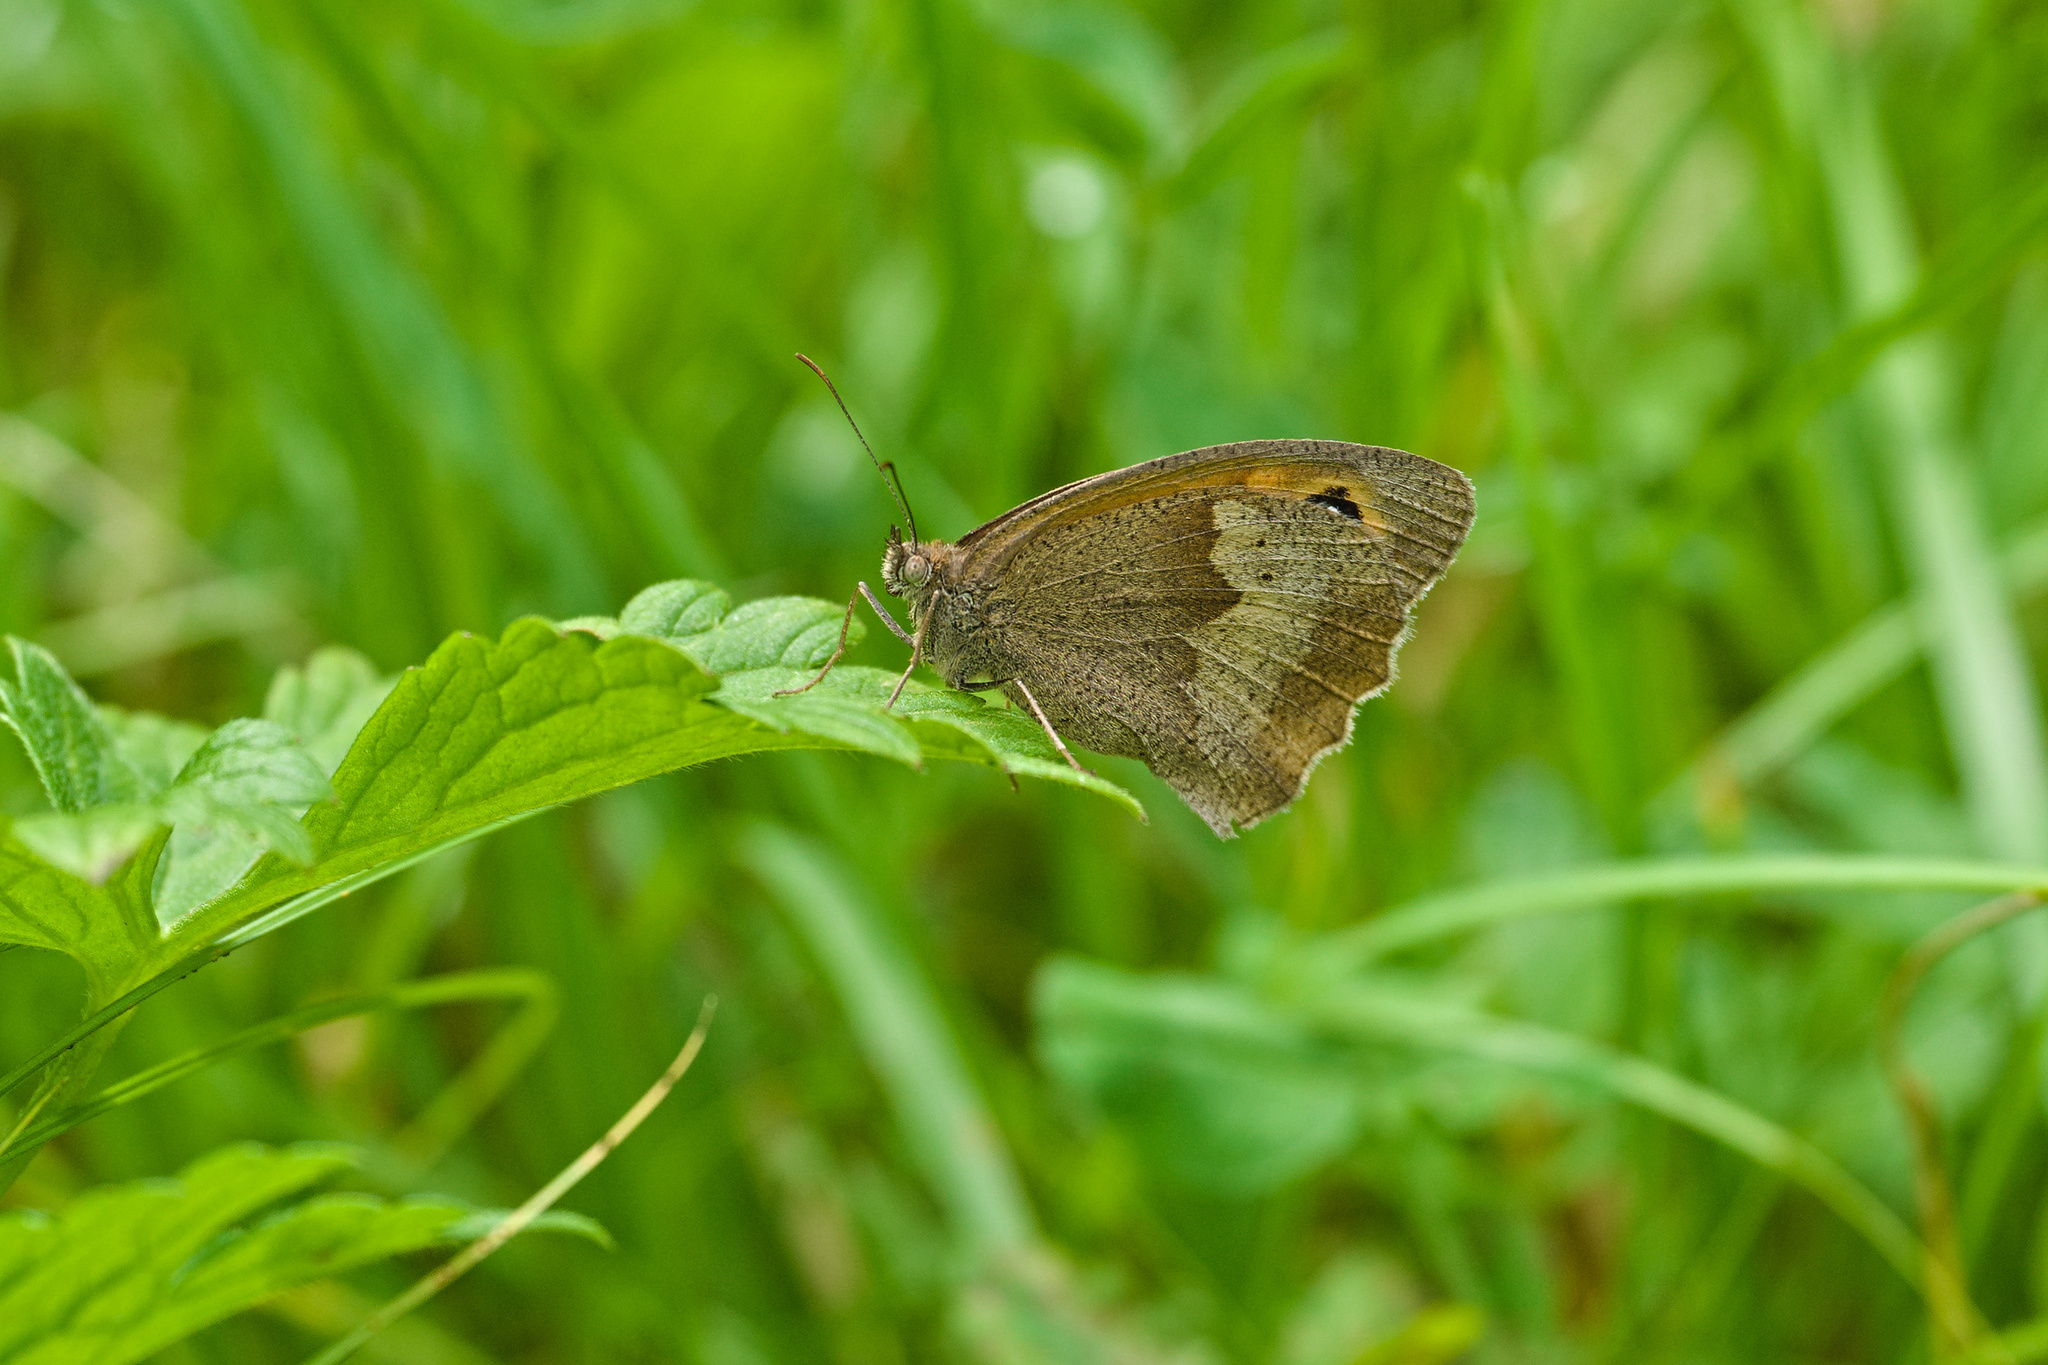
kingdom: Animalia
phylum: Arthropoda
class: Insecta
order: Lepidoptera
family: Nymphalidae
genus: Maniola
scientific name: Maniola jurtina
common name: Meadow brown
